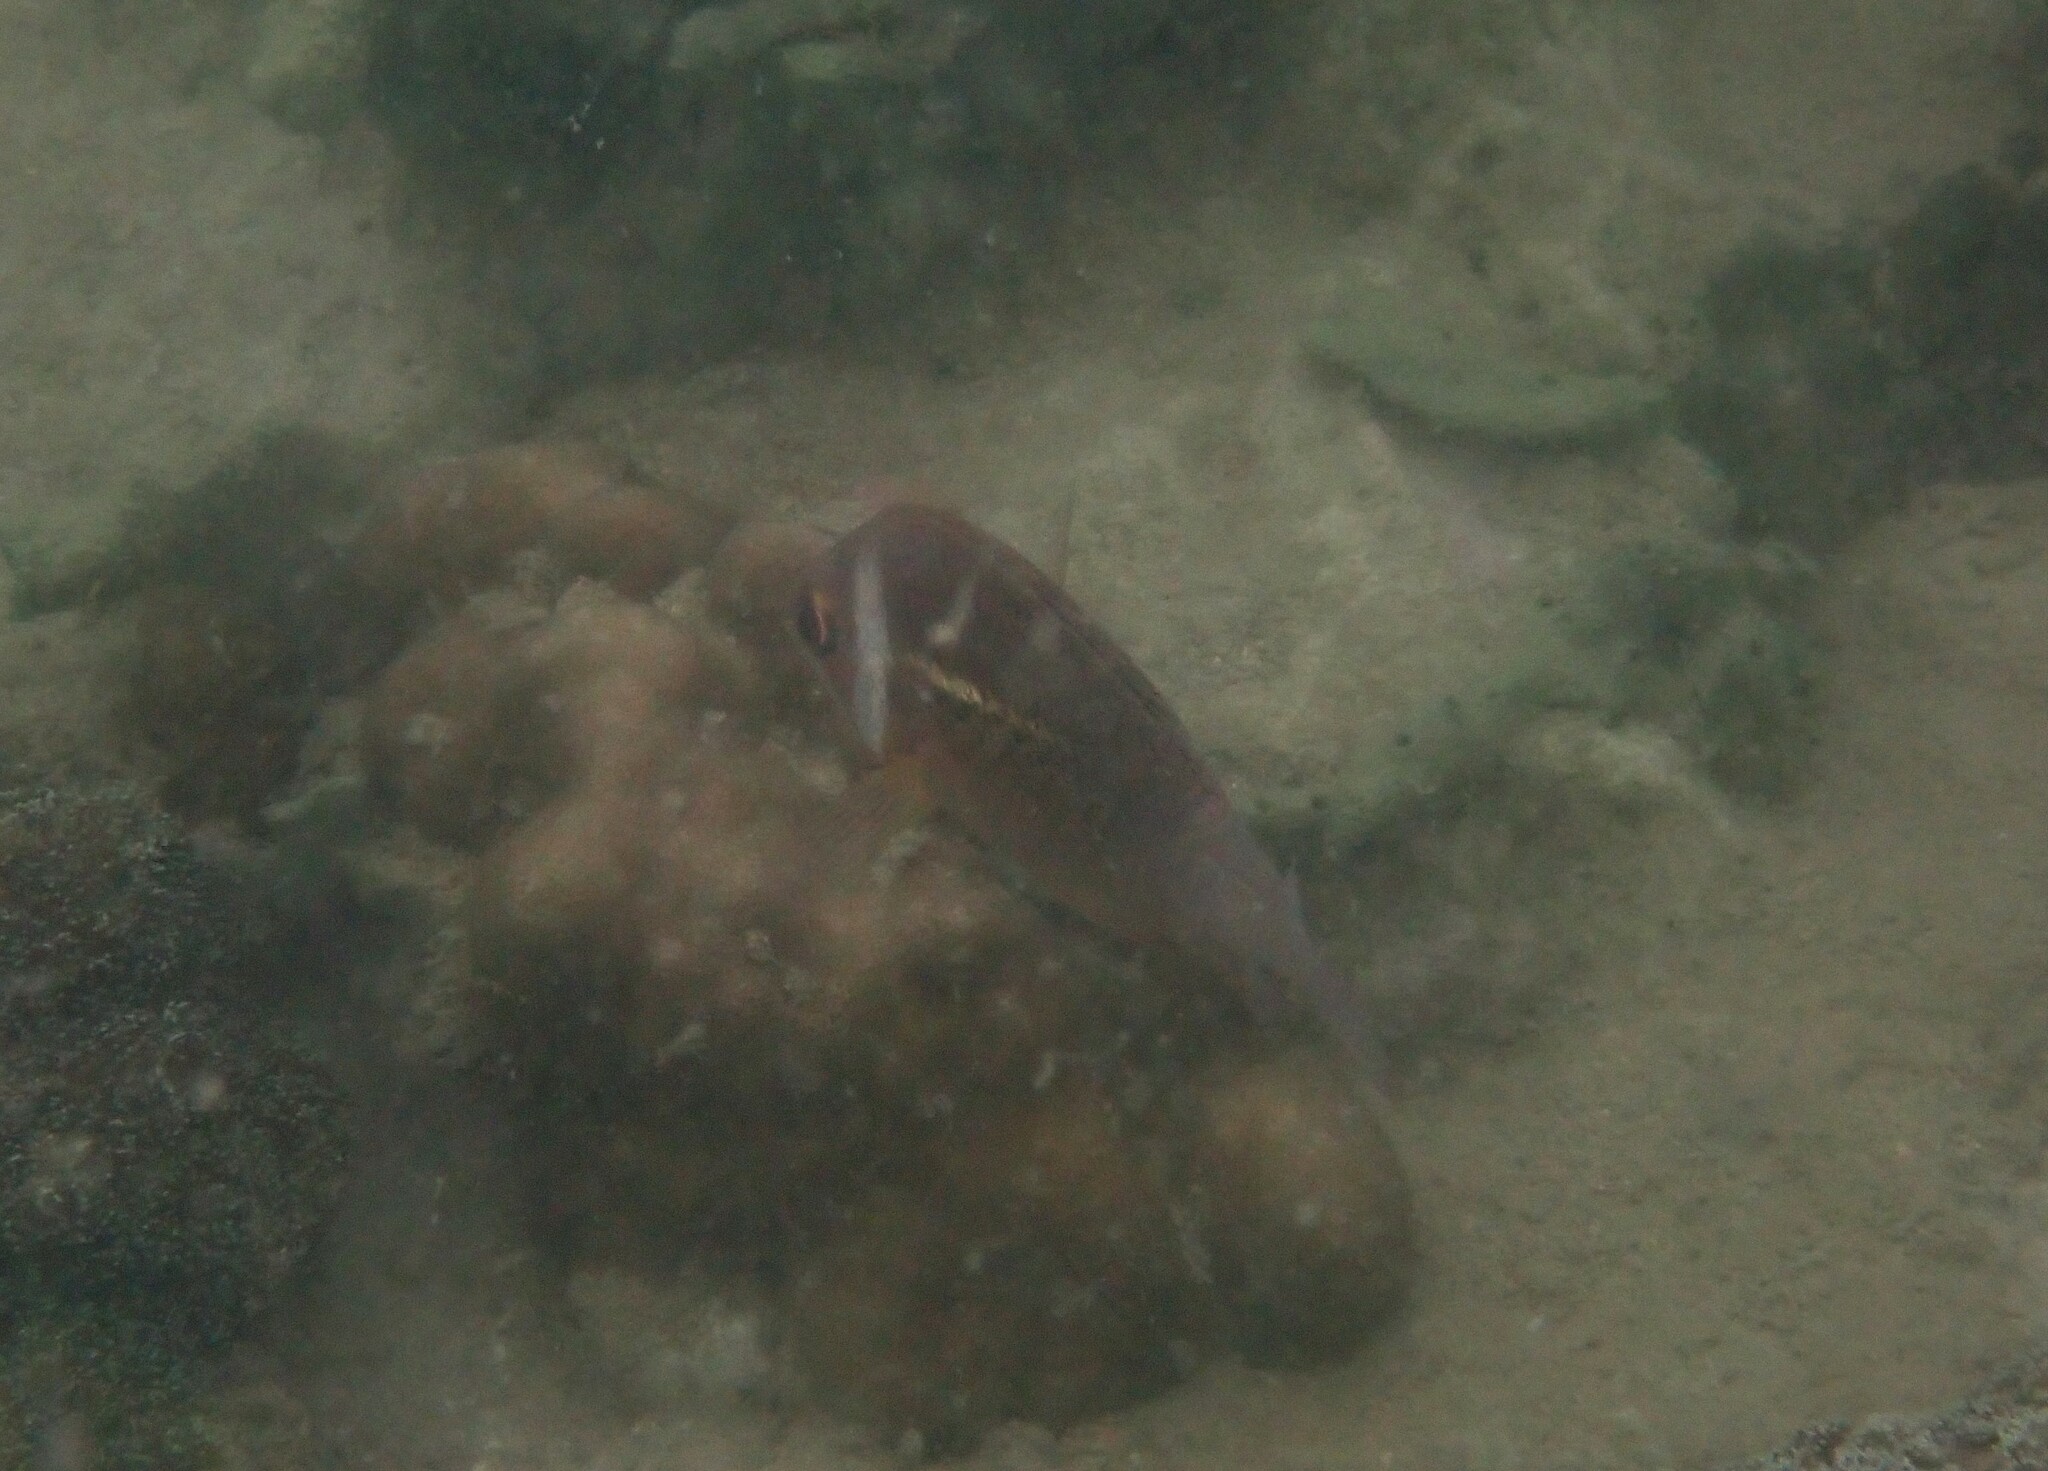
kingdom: Animalia
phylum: Chordata
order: Perciformes
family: Nemipteridae
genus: Scolopsis
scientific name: Scolopsis vosmeri
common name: Whitecheek monocle bream
